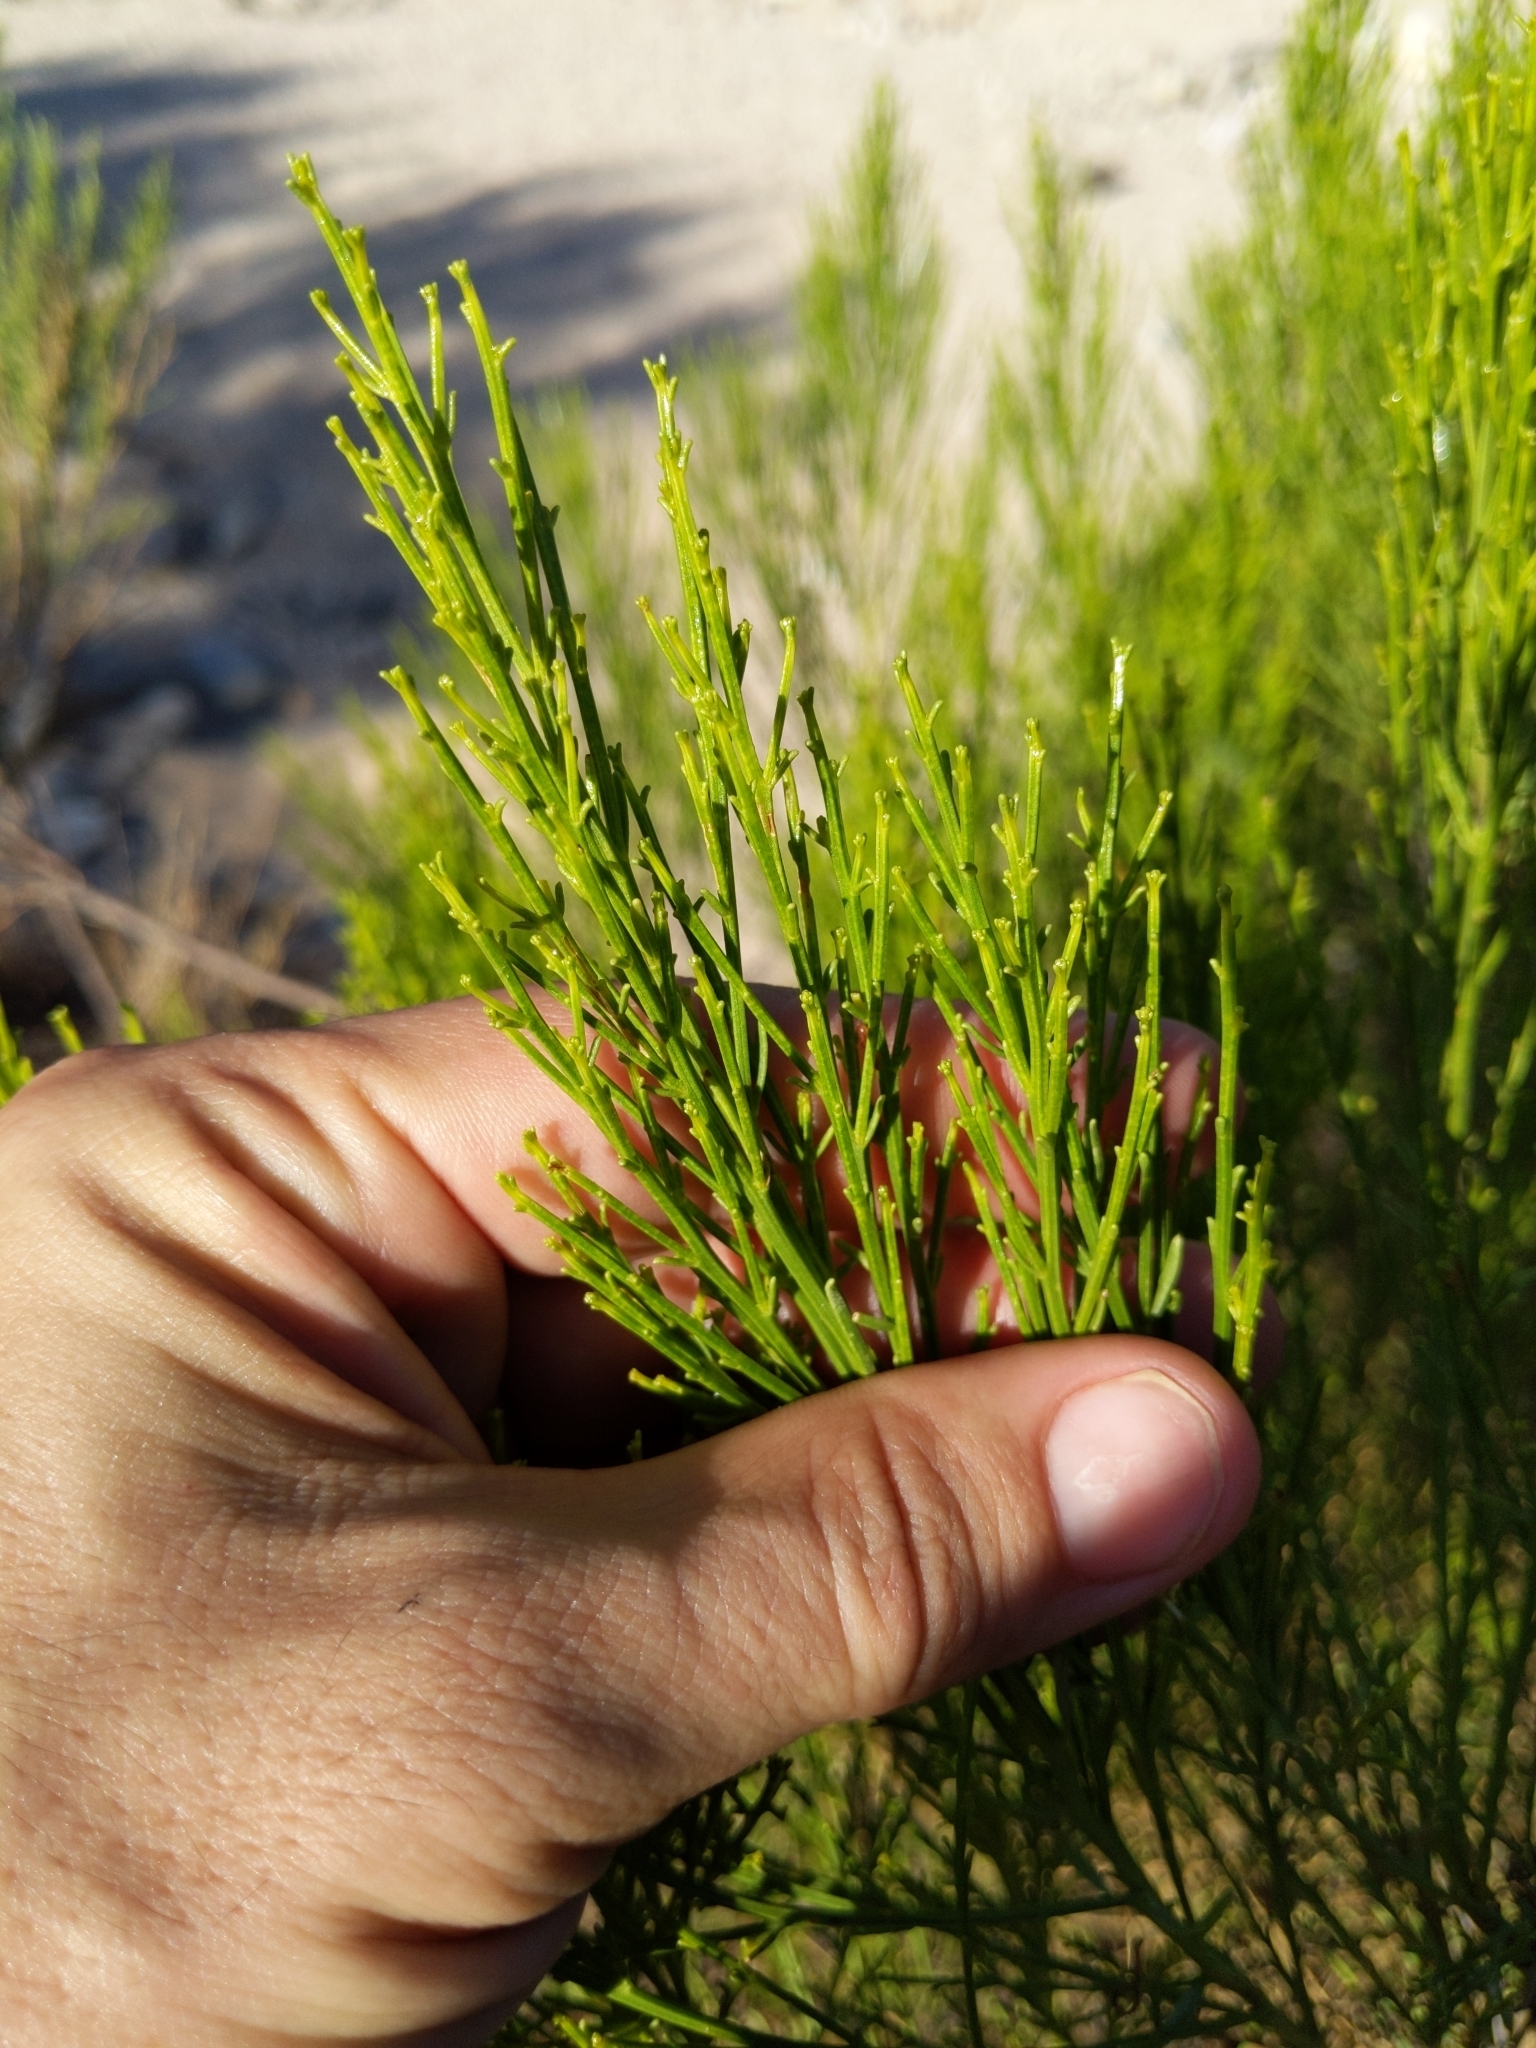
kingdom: Plantae
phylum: Tracheophyta
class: Magnoliopsida
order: Asterales
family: Asteraceae
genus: Baccharis
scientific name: Baccharis sarothroides
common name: Desert-broom
